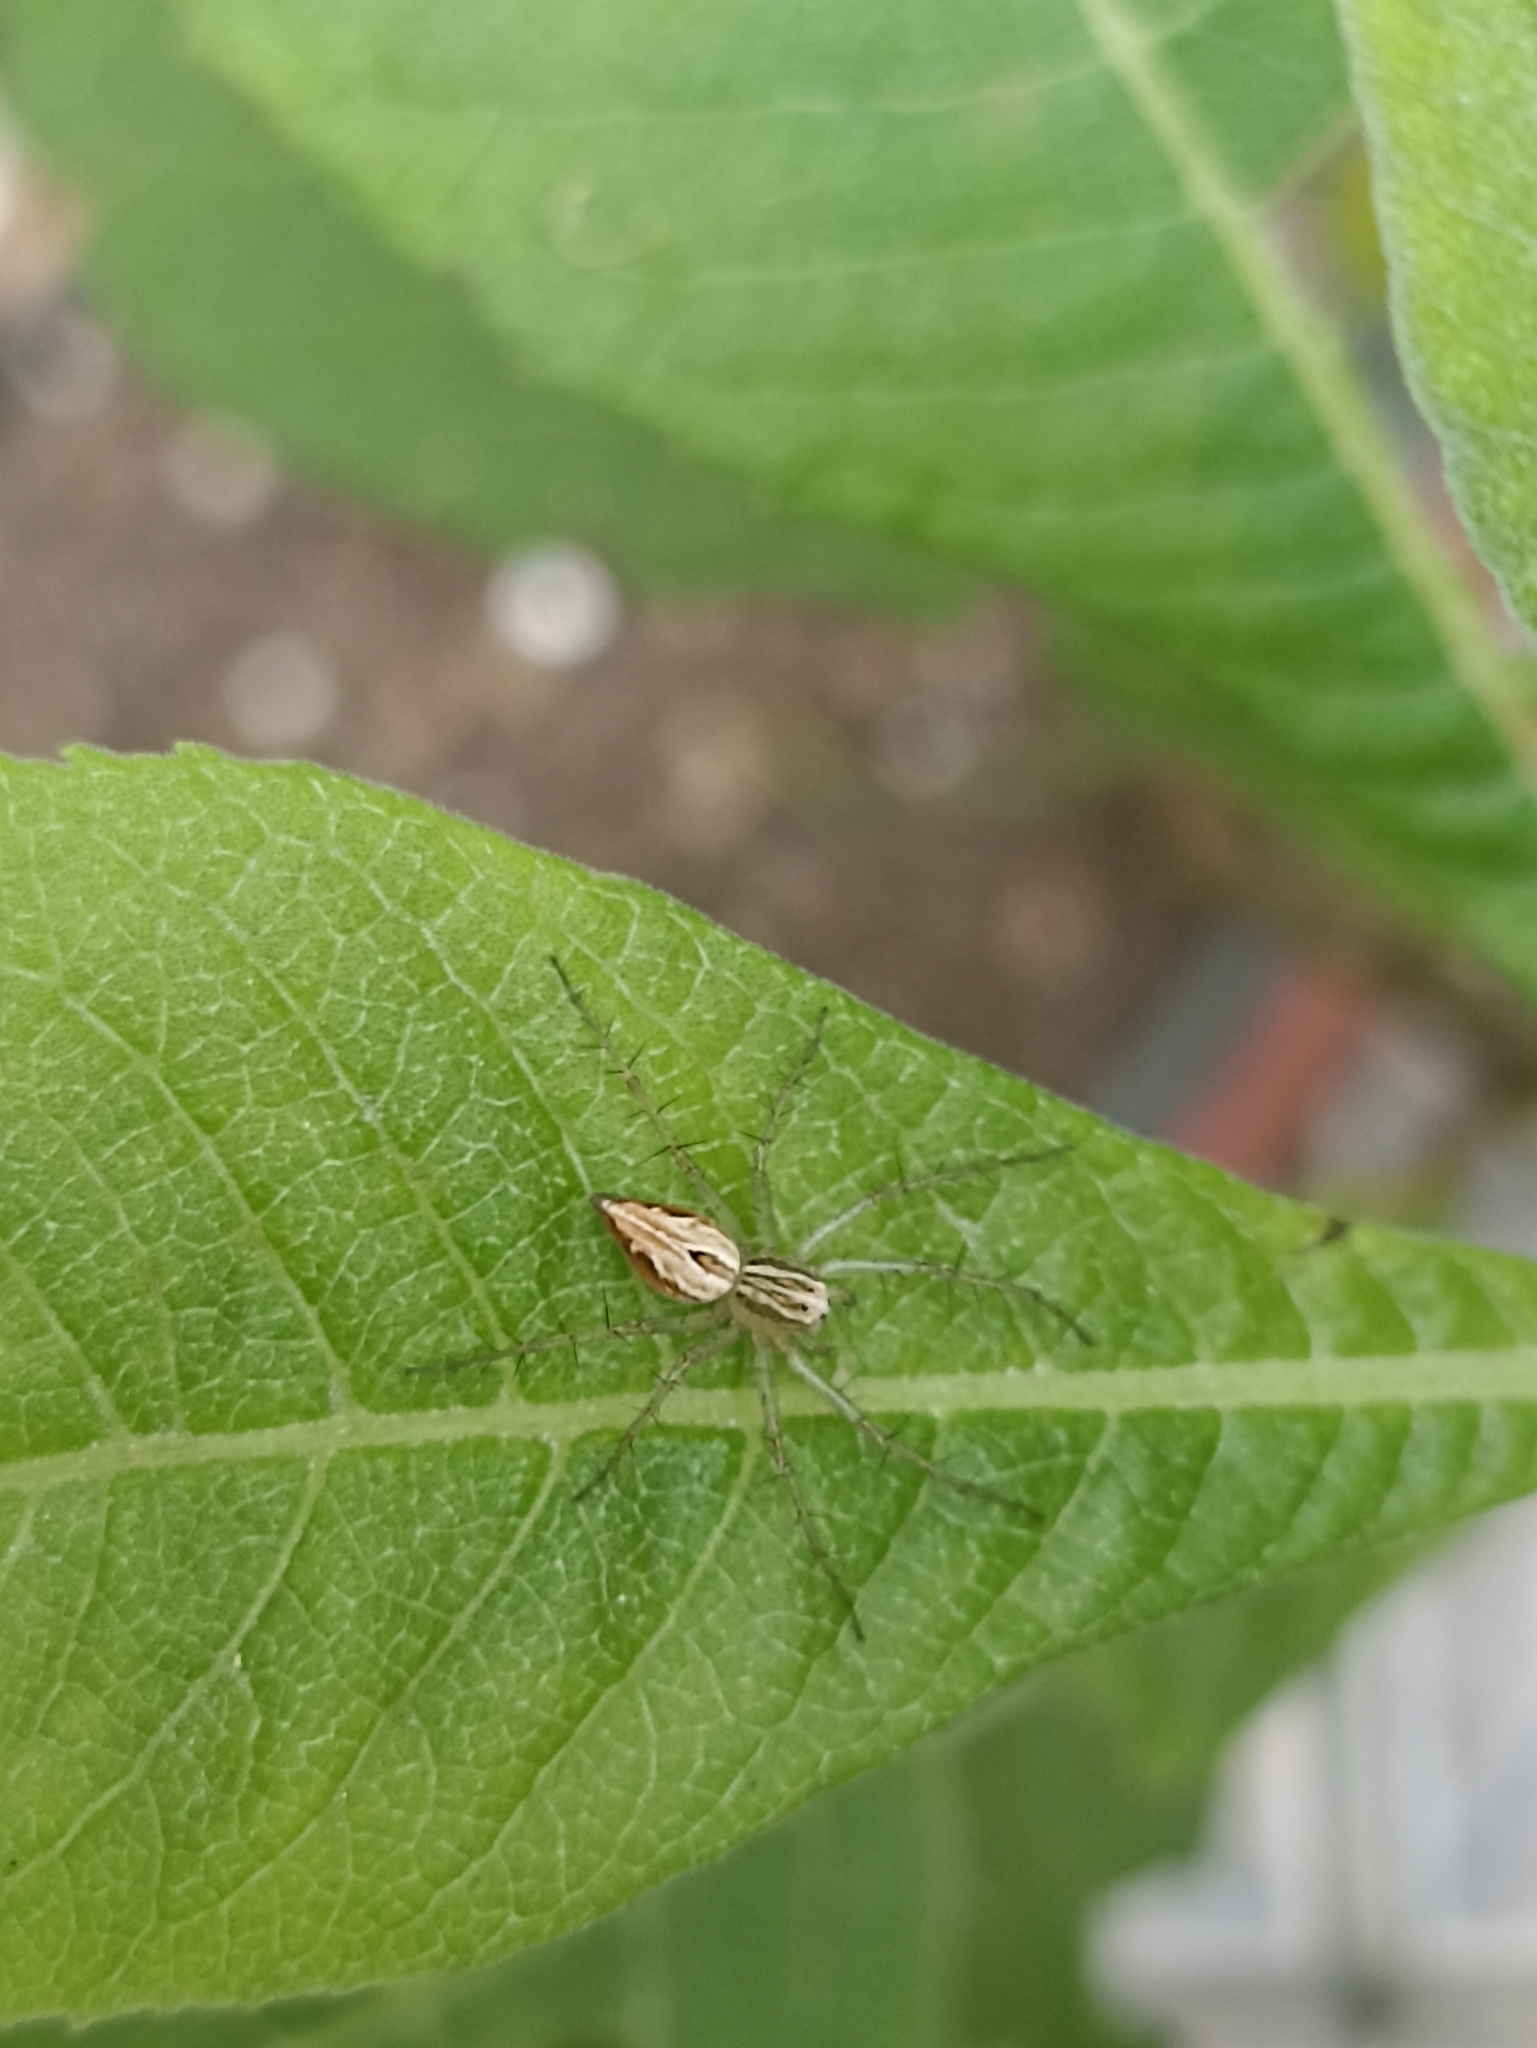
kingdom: Animalia
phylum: Arthropoda
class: Arachnida
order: Araneae
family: Oxyopidae
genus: Oxyopes
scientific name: Oxyopes salticus
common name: Lynx spiders
